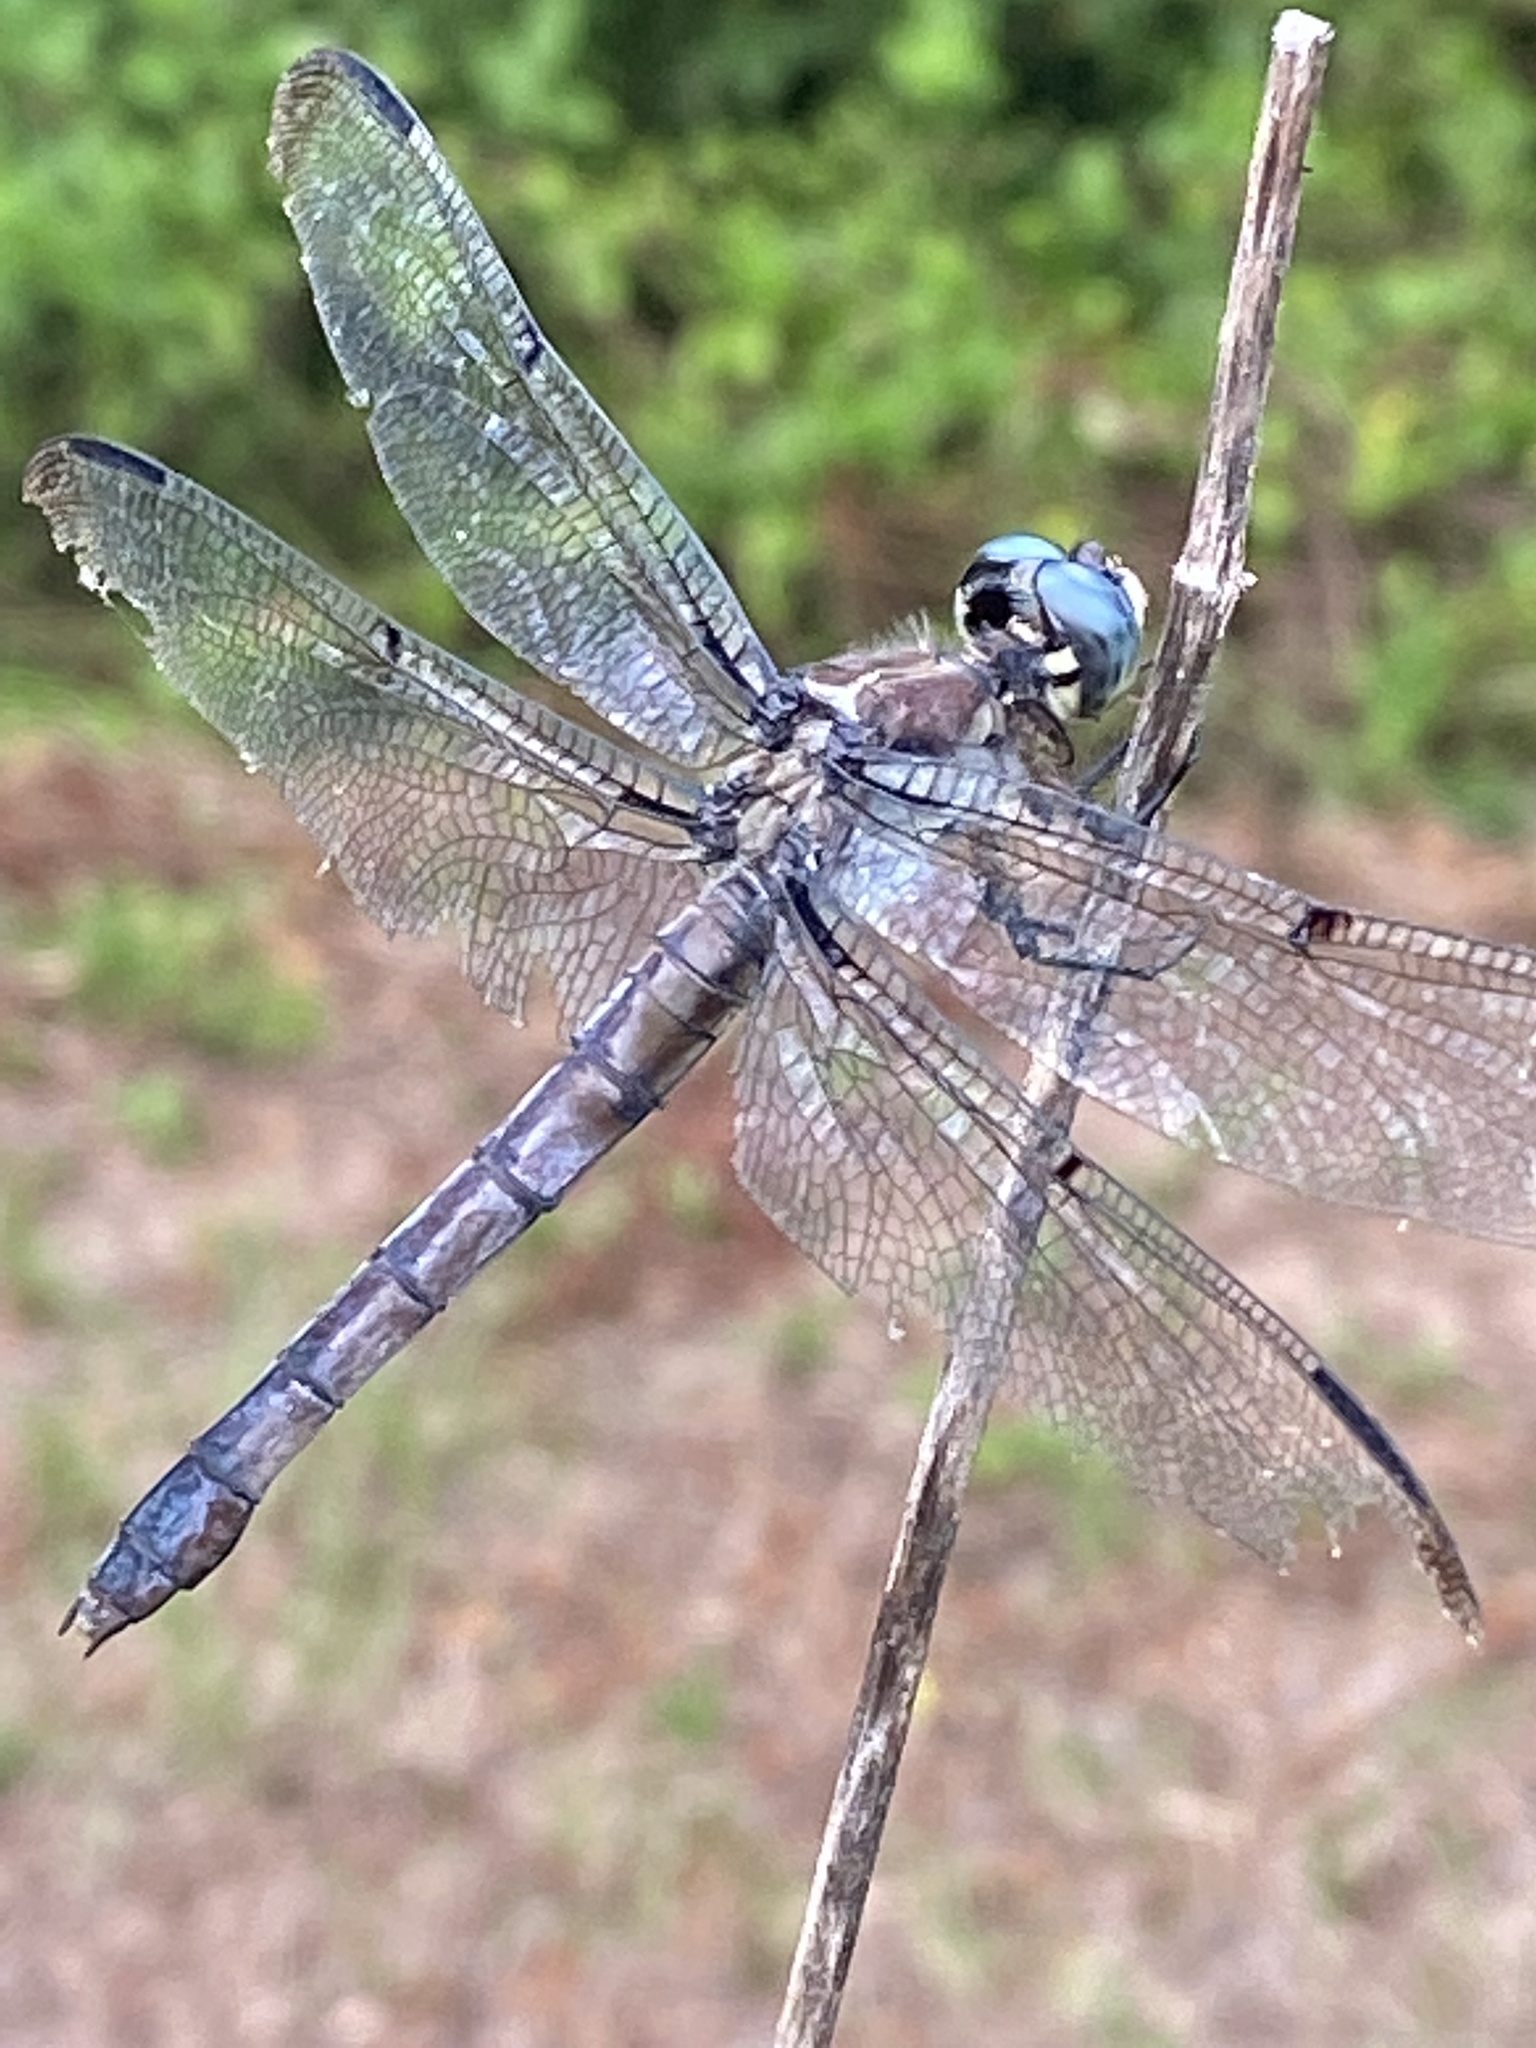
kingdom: Animalia
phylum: Arthropoda
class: Insecta
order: Odonata
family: Libellulidae
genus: Libellula
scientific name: Libellula vibrans
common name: Great blue skimmer
